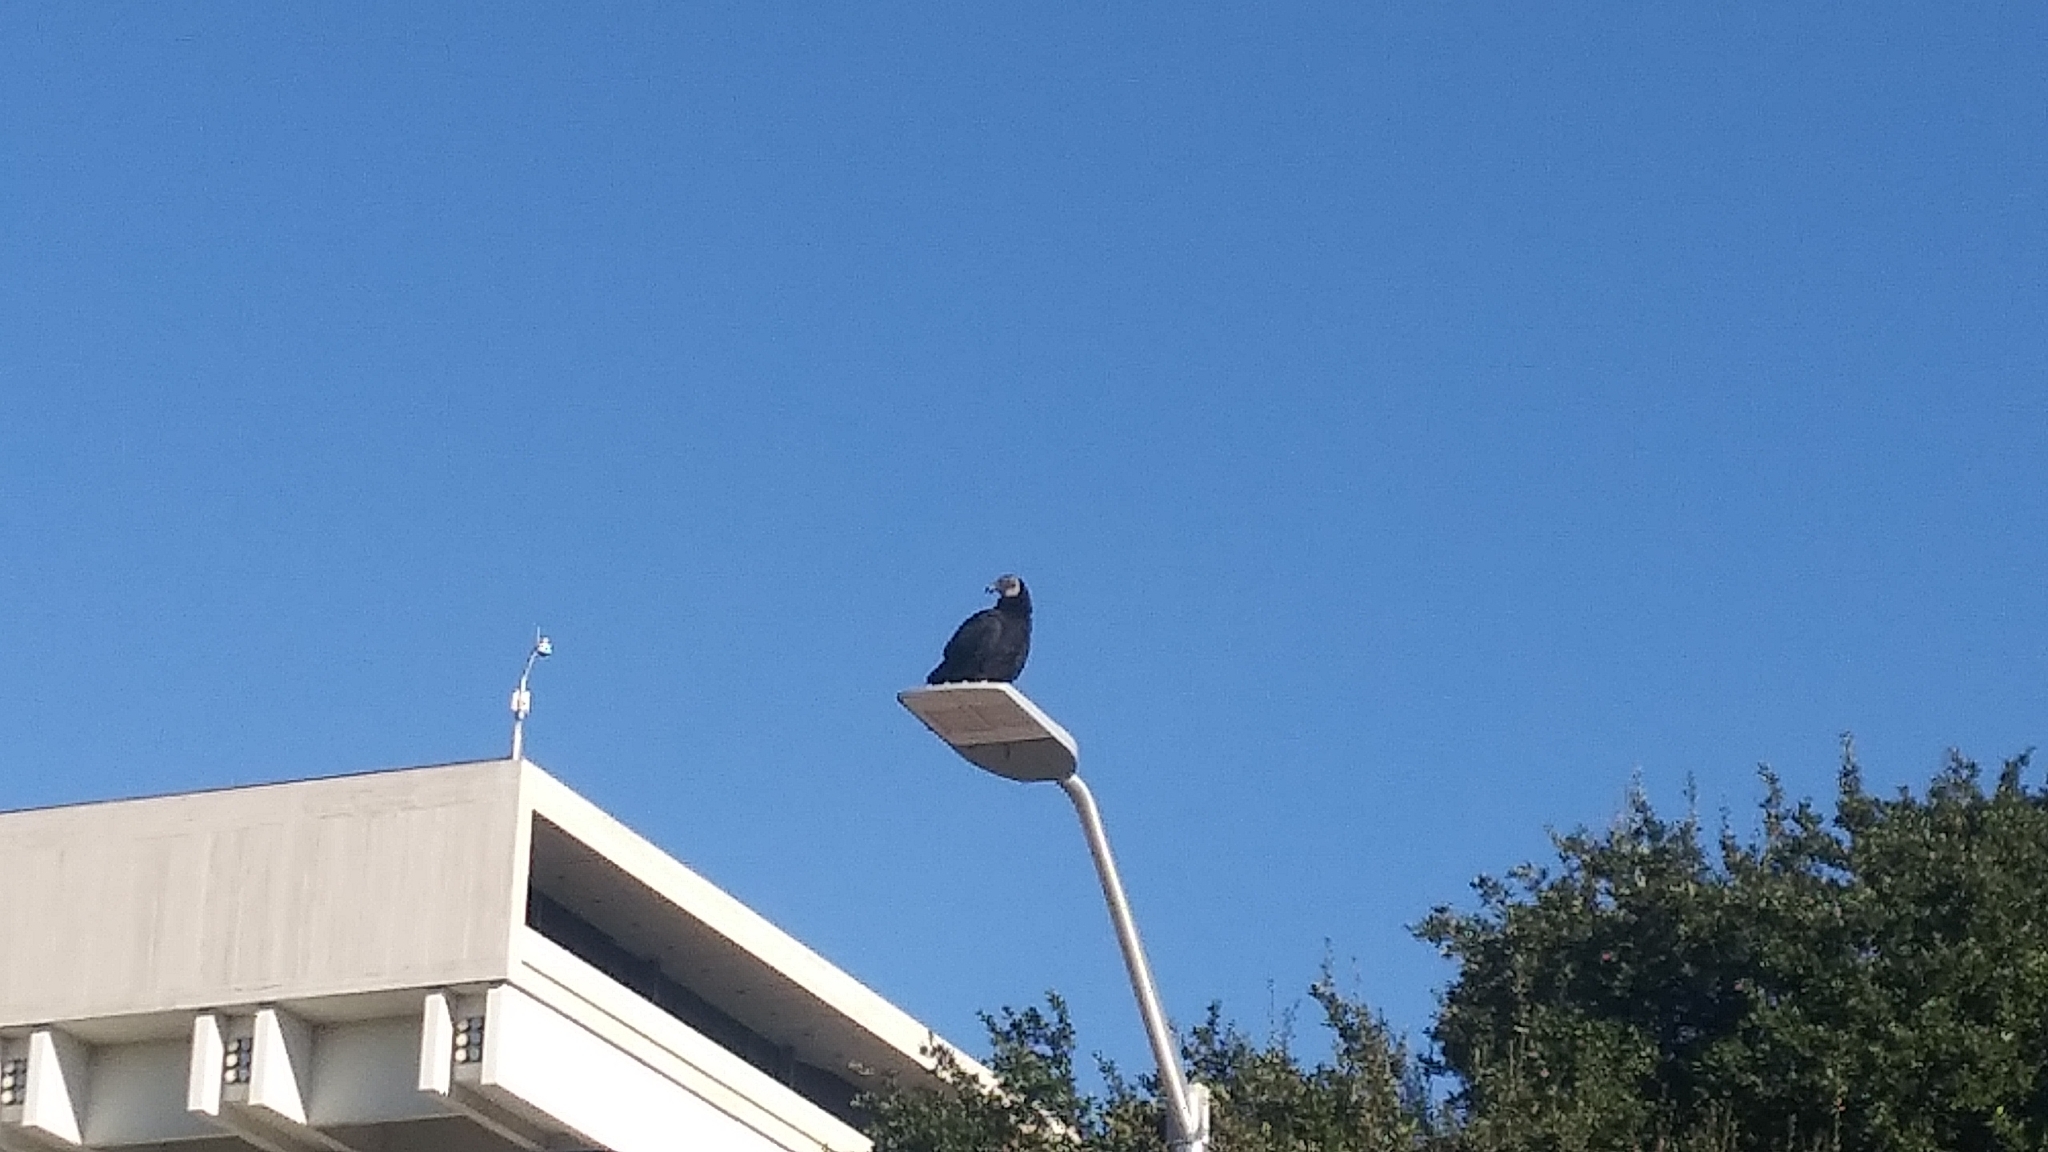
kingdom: Animalia
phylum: Chordata
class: Aves
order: Accipitriformes
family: Cathartidae
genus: Coragyps
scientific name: Coragyps atratus
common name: Black vulture
